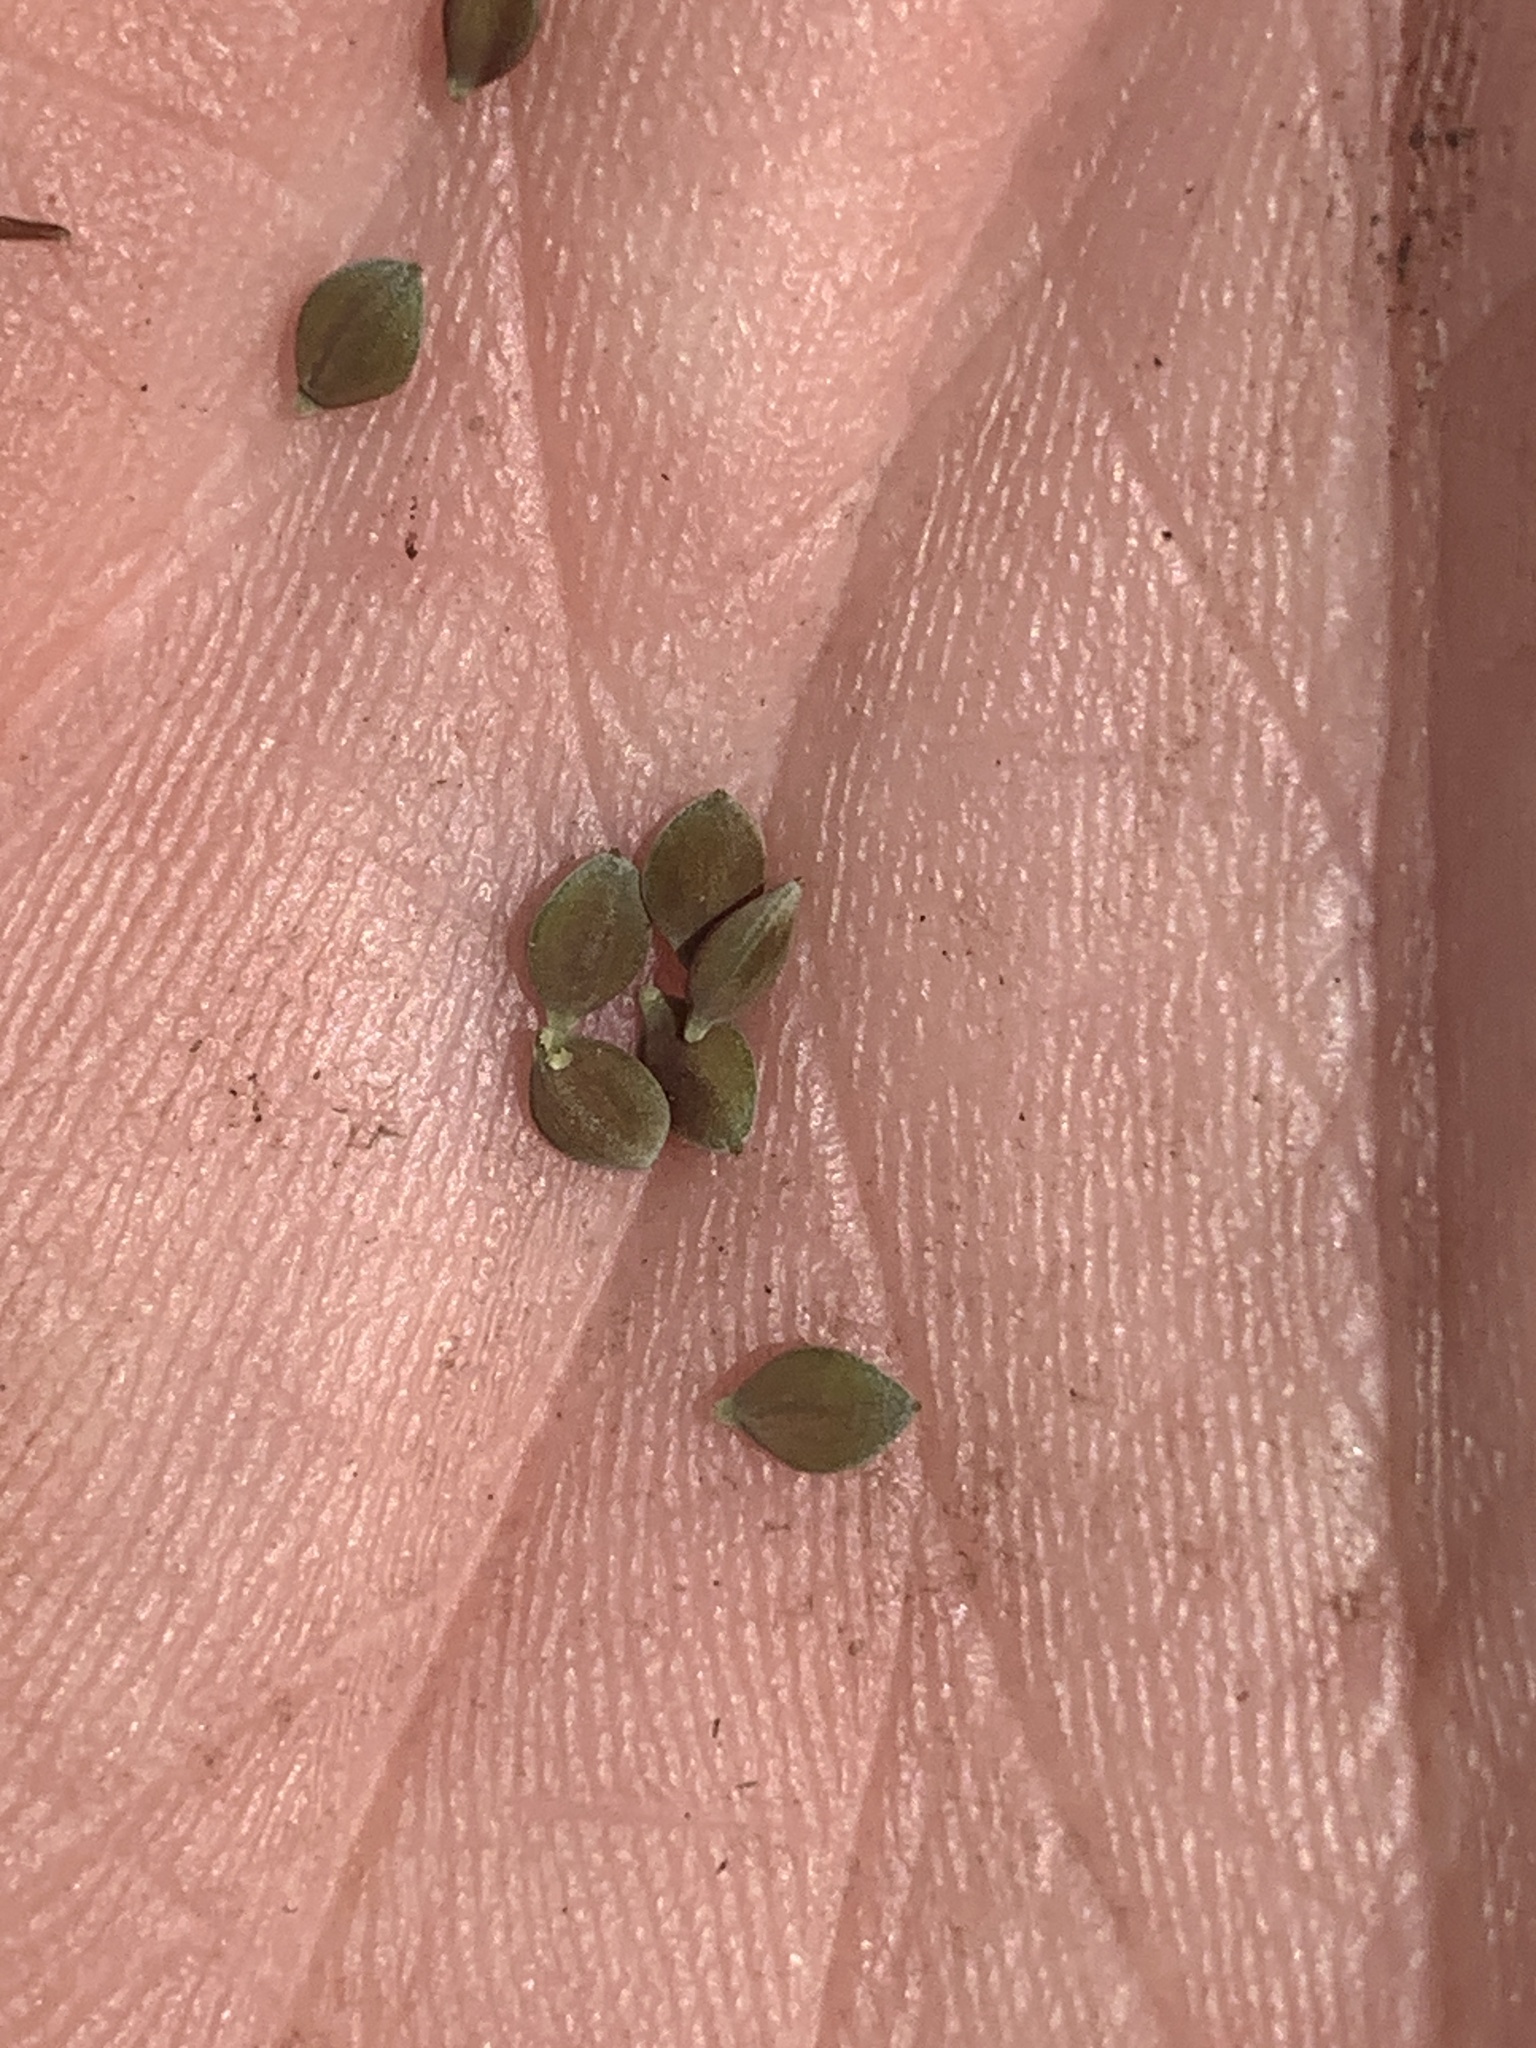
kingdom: Plantae
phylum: Tracheophyta
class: Liliopsida
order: Poales
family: Cyperaceae
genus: Carex
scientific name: Carex magellanica
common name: Bog sedge
